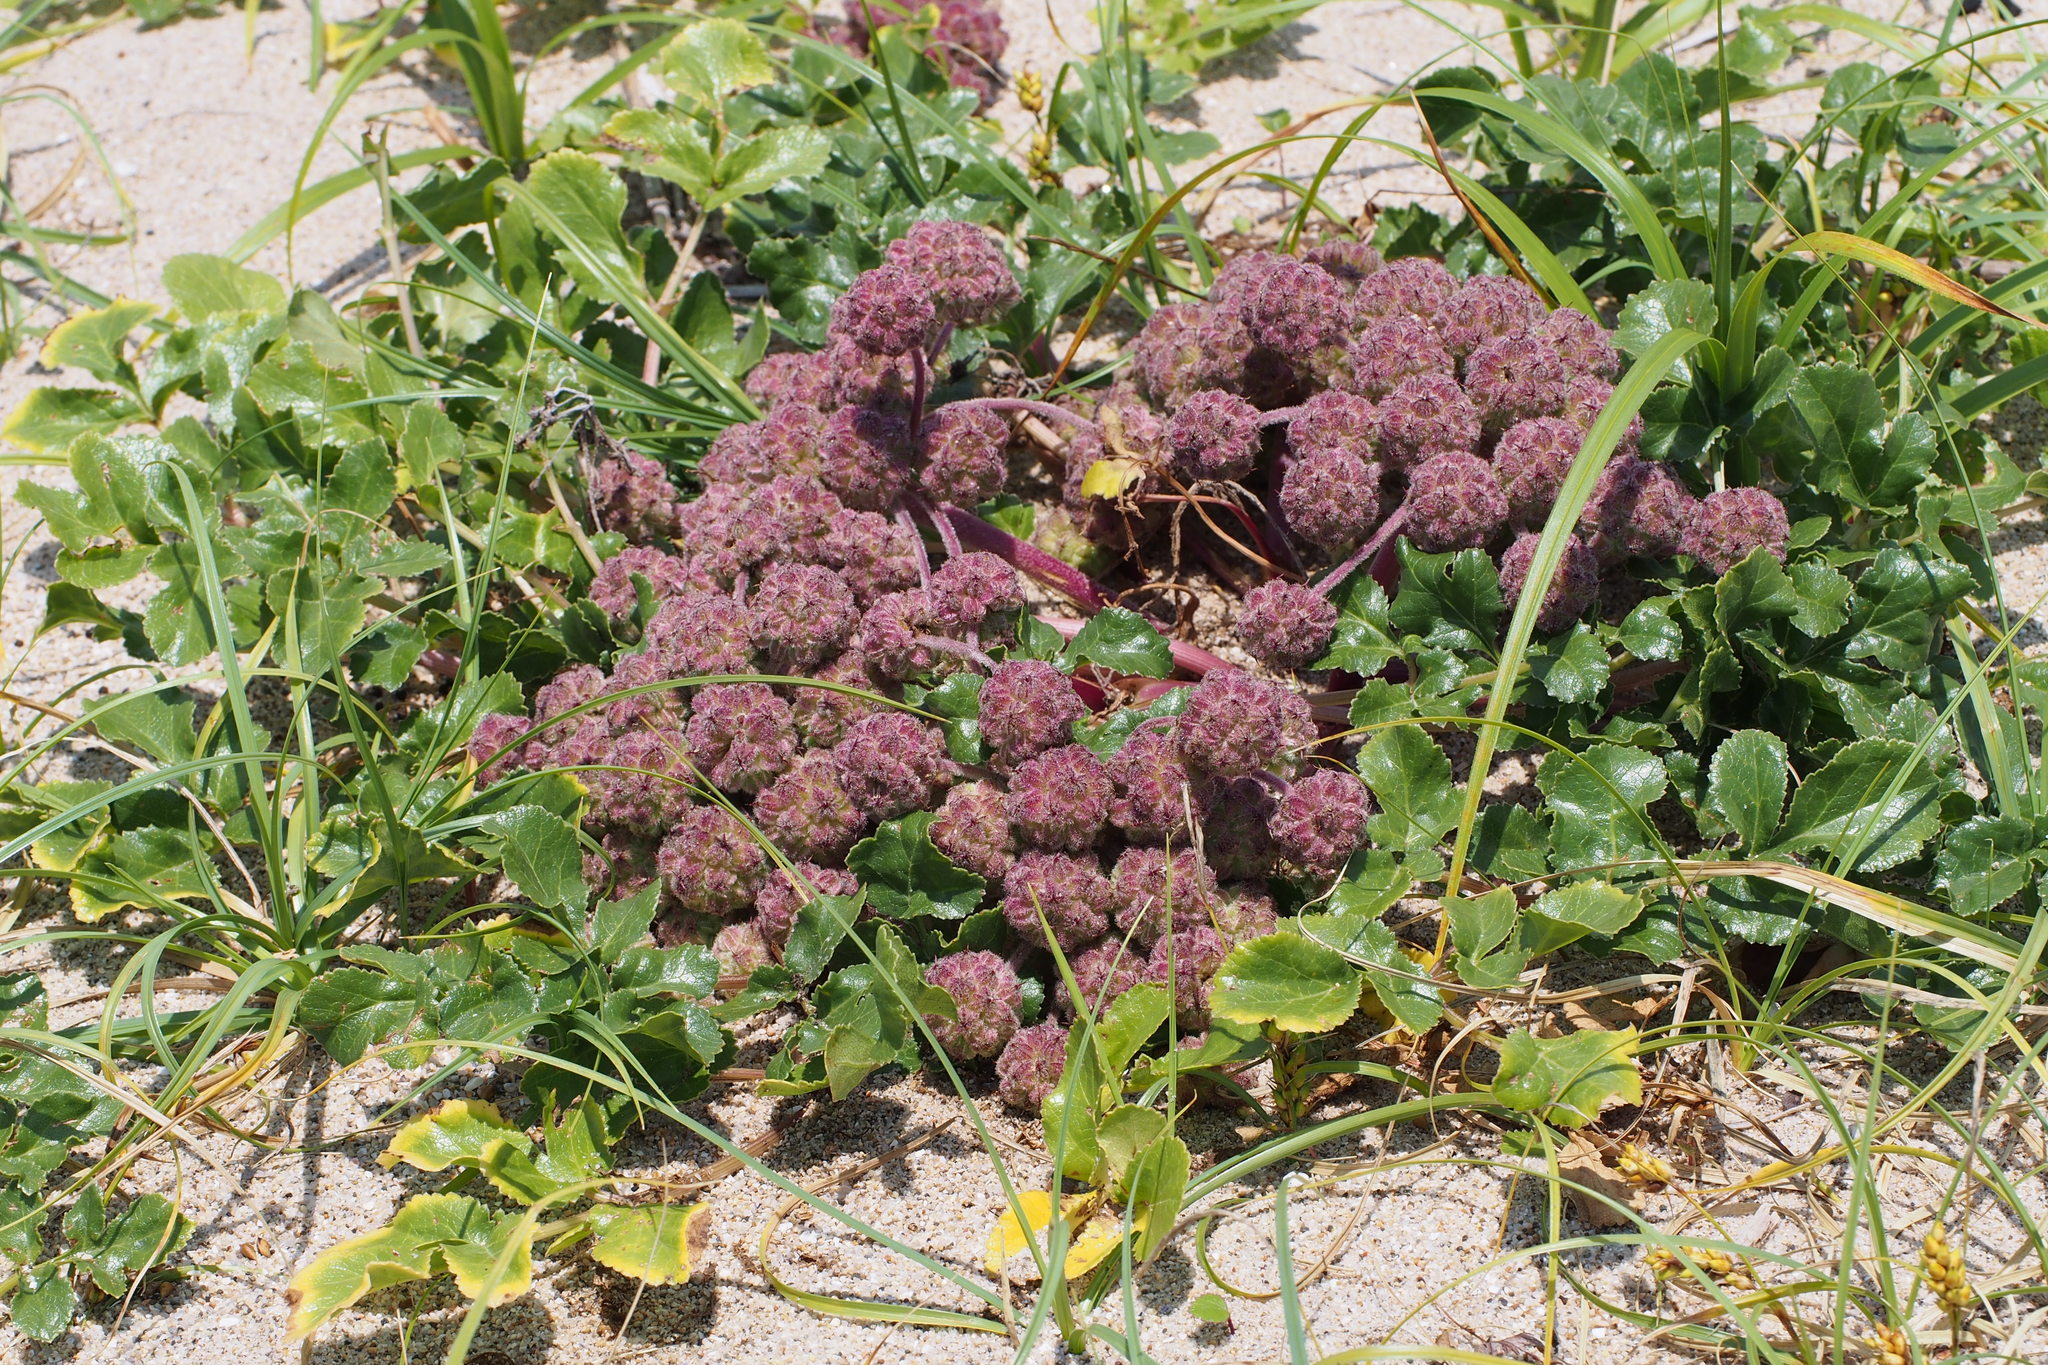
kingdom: Plantae
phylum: Tracheophyta
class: Magnoliopsida
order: Apiales
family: Apiaceae
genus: Glehnia
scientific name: Glehnia littoralis
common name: Beach silvertop
